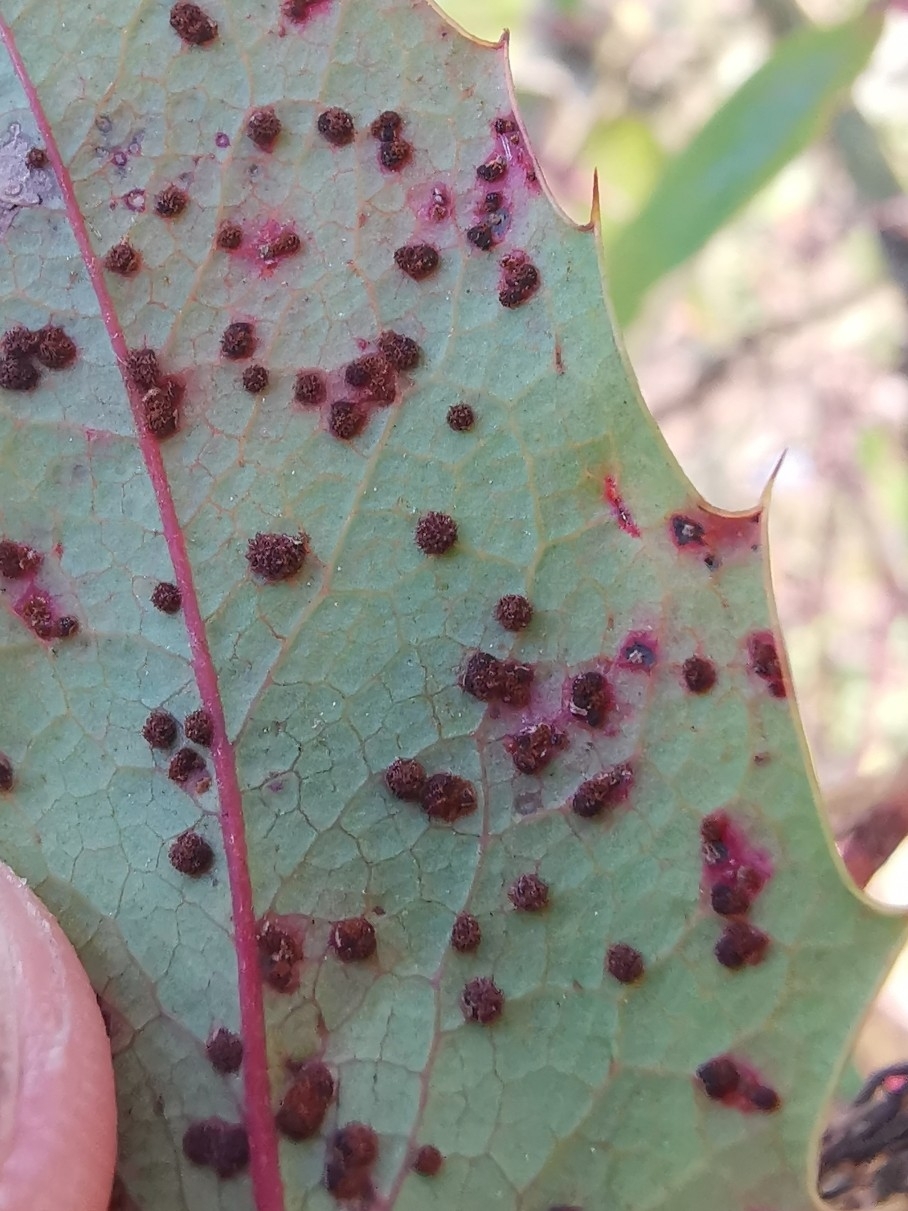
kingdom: Fungi
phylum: Basidiomycota
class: Pucciniomycetes
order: Pucciniales
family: Pucciniaceae
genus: Cumminsiella
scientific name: Cumminsiella mirabilissima
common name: Mahonia rust
